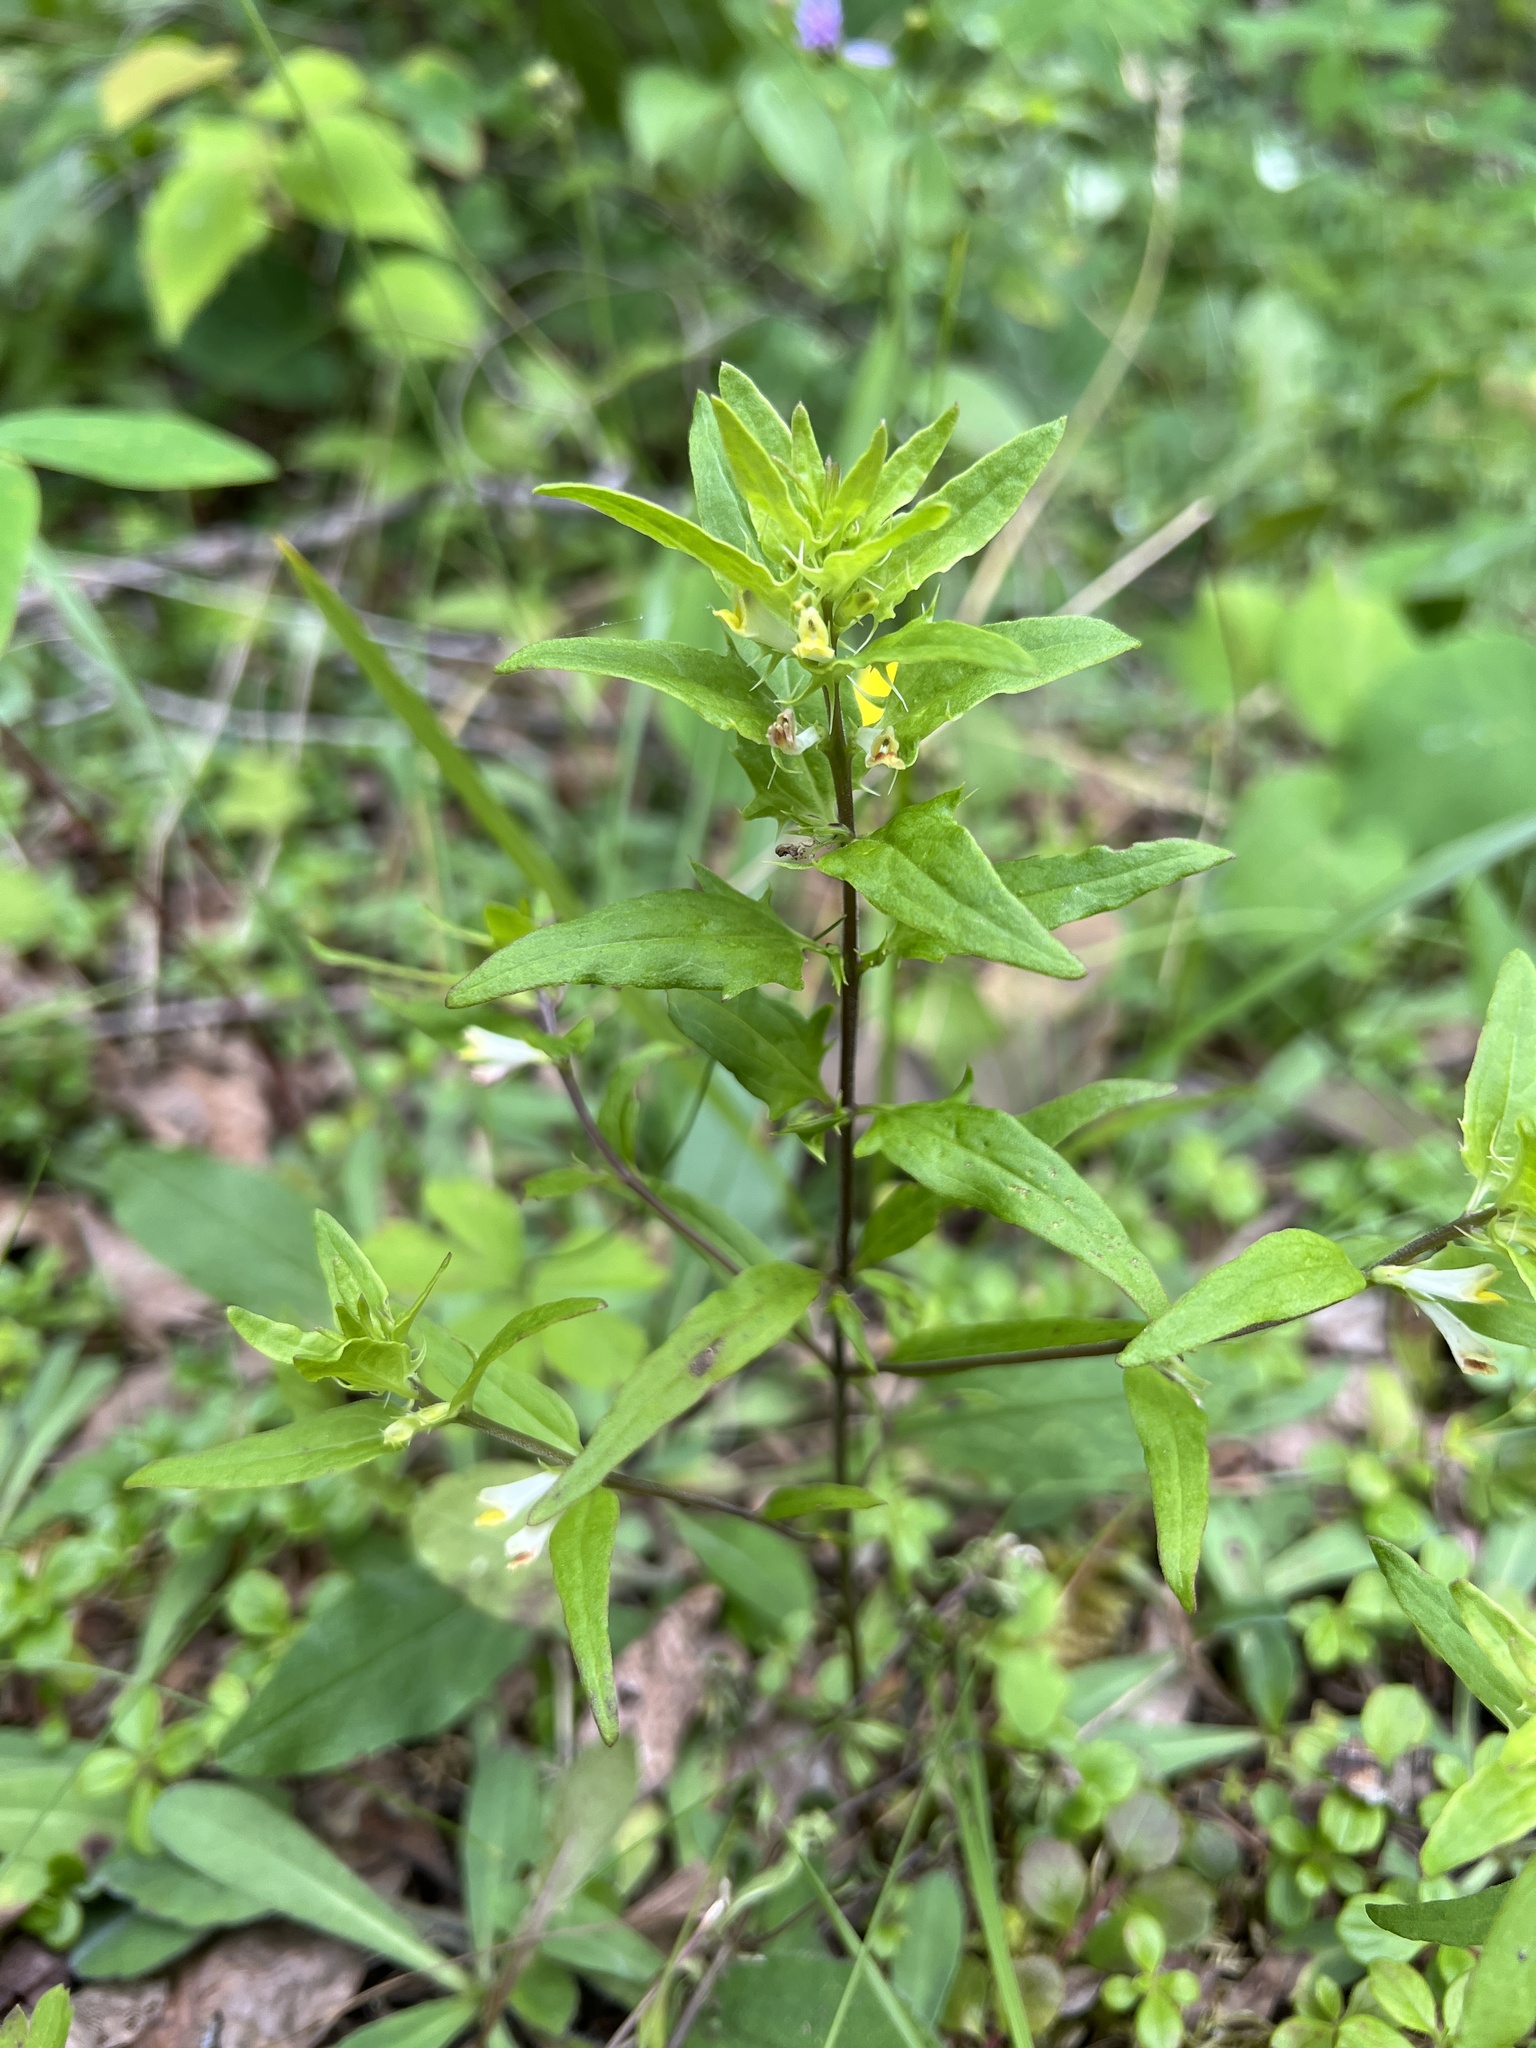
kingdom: Plantae
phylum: Tracheophyta
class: Magnoliopsida
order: Lamiales
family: Orobanchaceae
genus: Melampyrum
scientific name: Melampyrum lineare
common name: American cow-wheat
